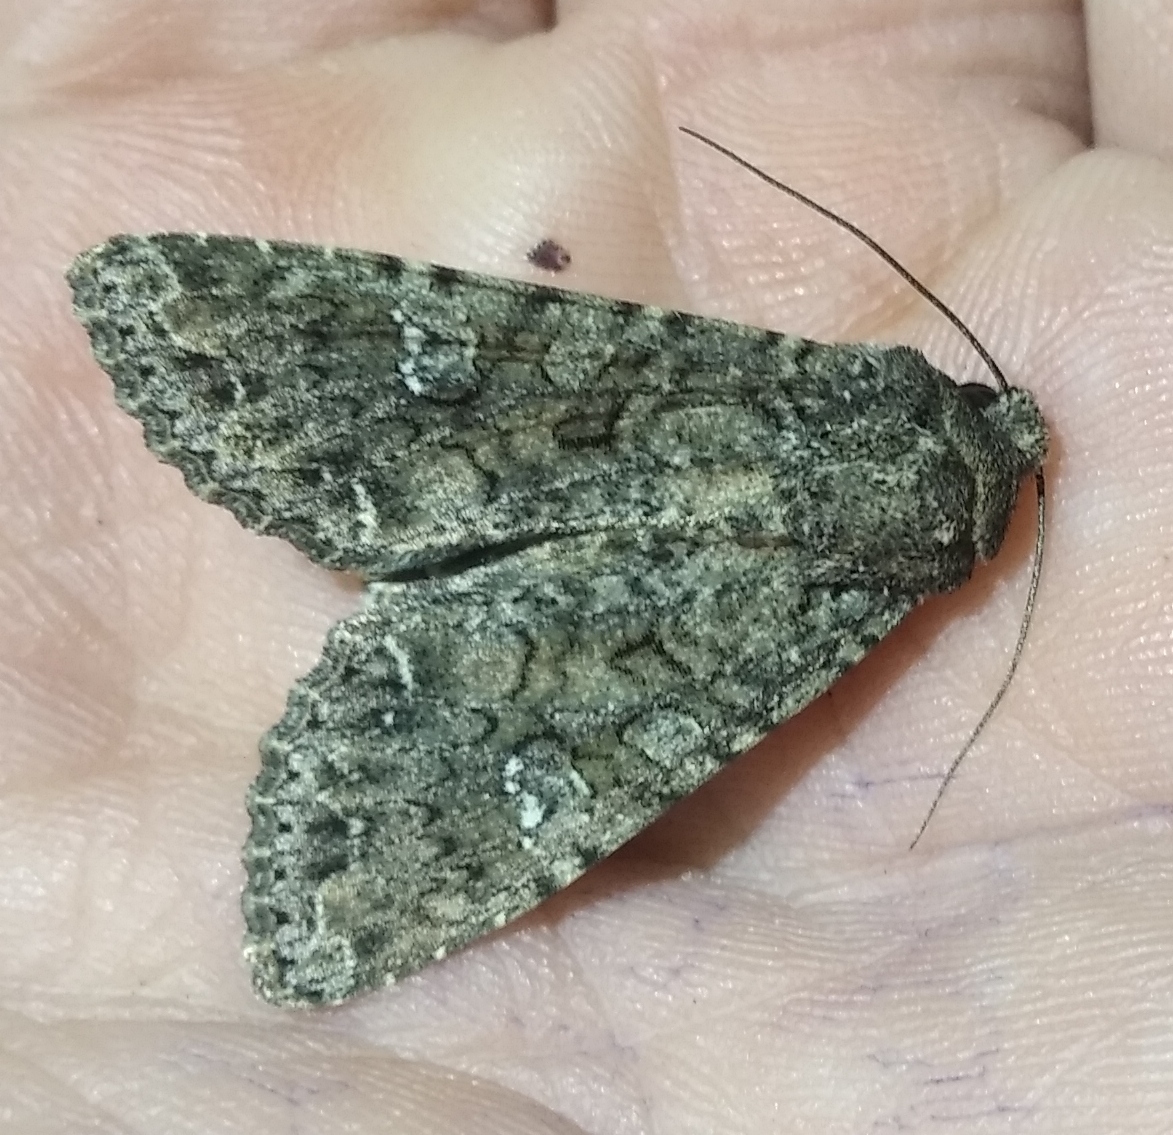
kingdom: Animalia
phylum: Arthropoda
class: Insecta
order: Lepidoptera
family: Noctuidae
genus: Mamestra
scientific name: Mamestra brassicae
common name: Cabbage moth
